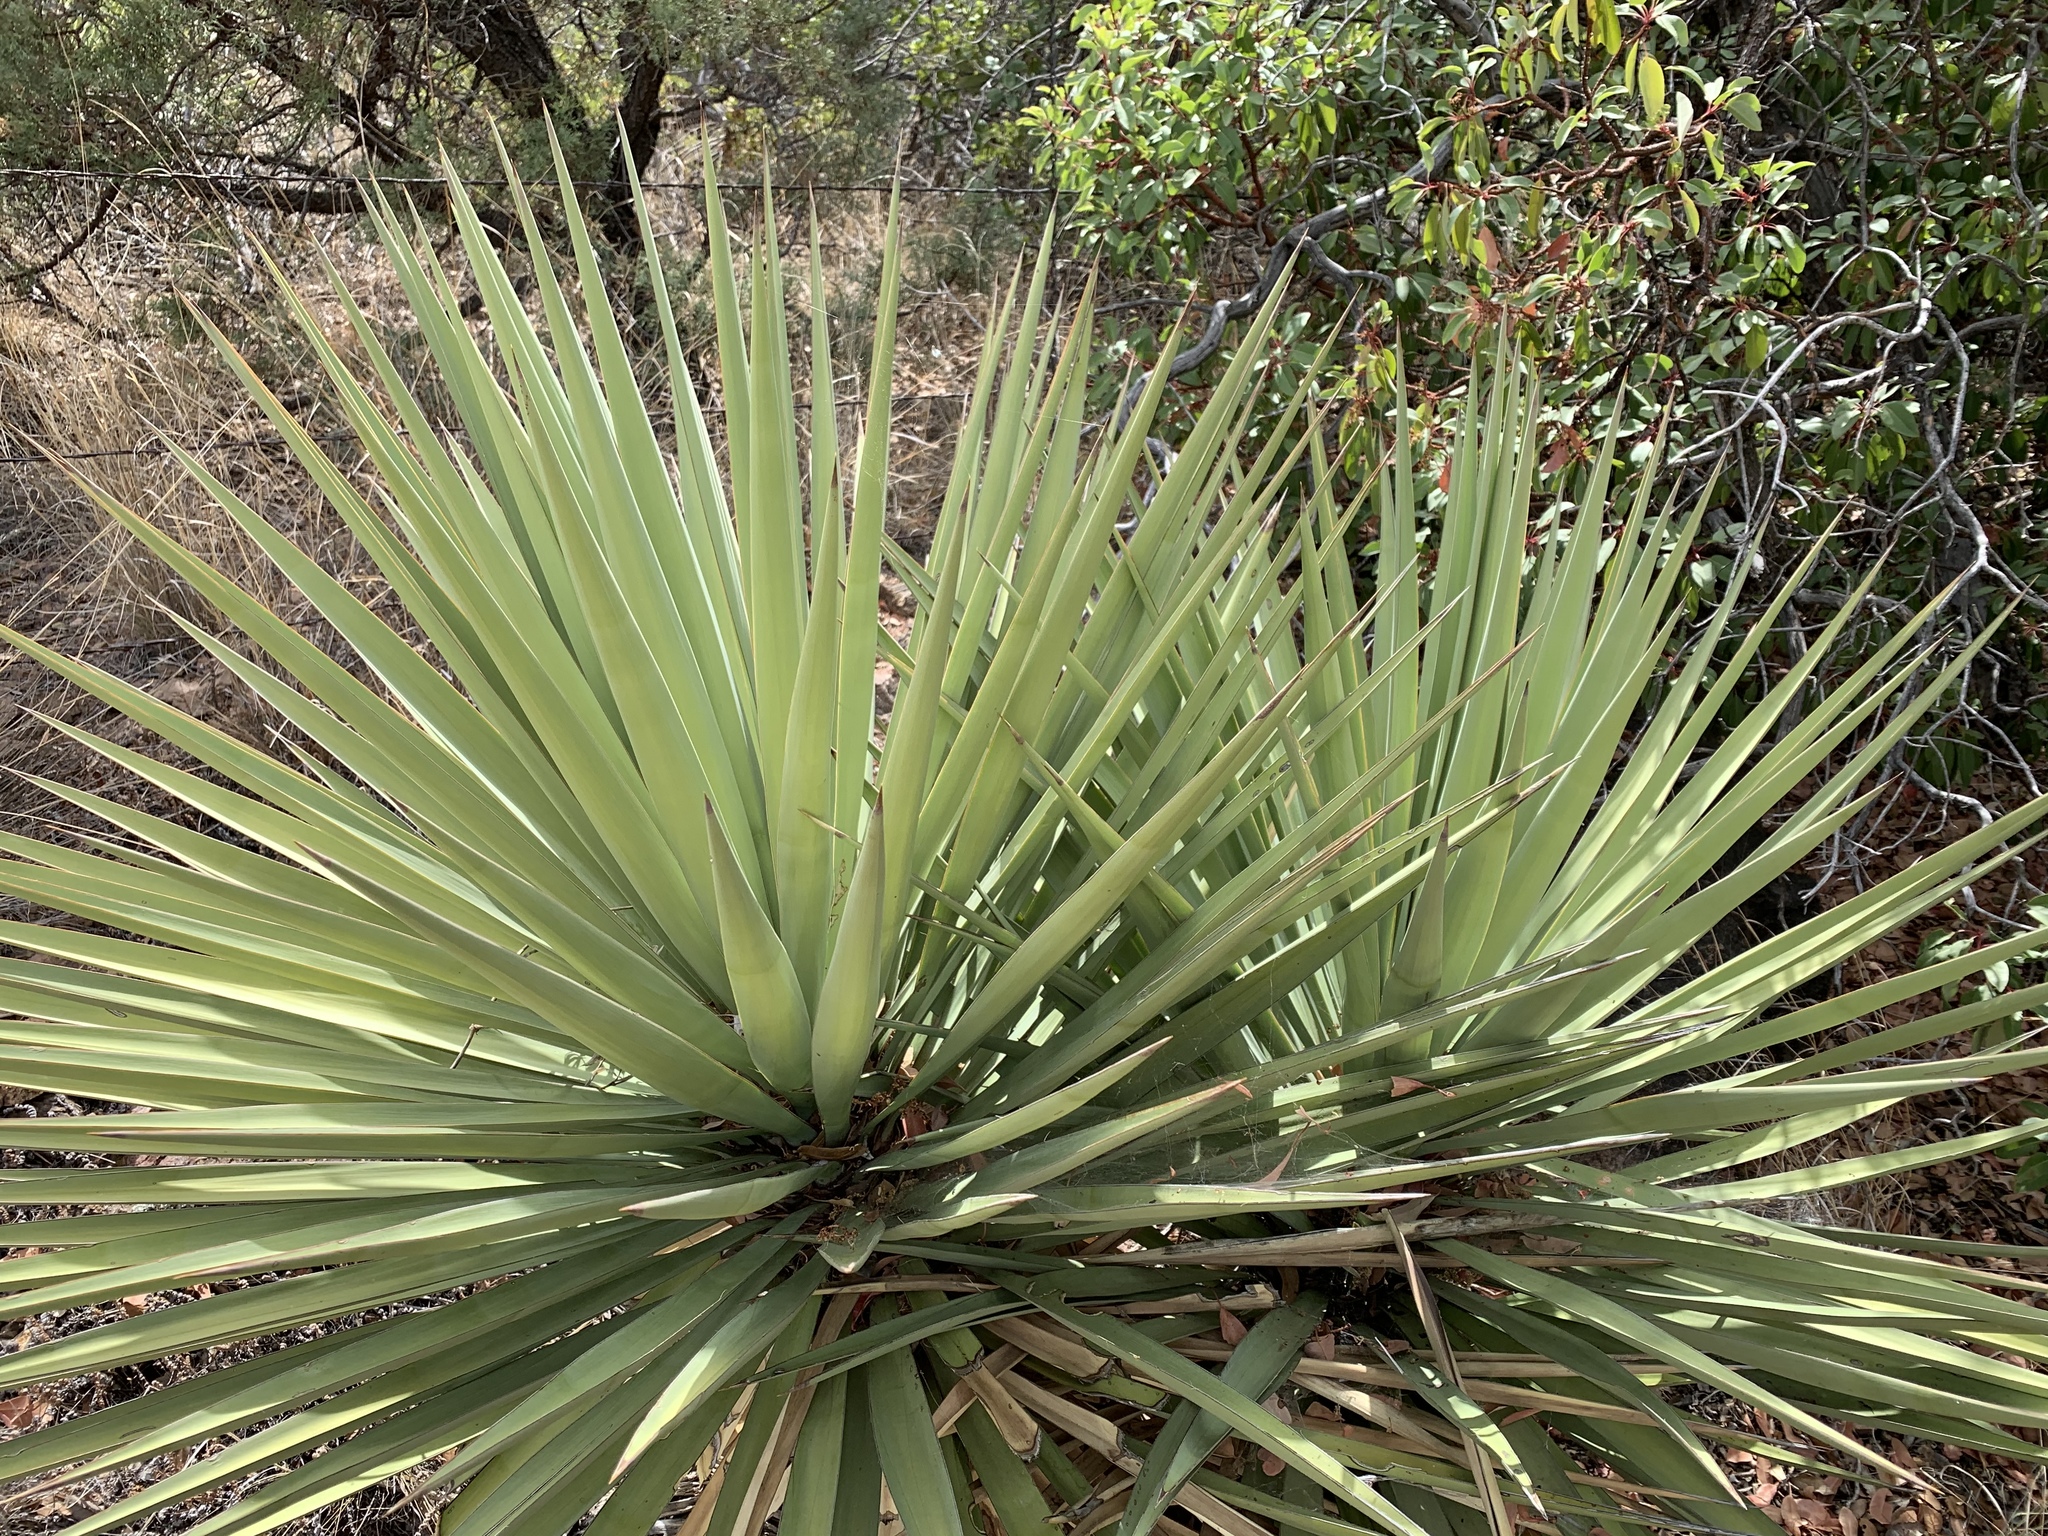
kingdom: Plantae
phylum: Tracheophyta
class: Liliopsida
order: Asparagales
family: Asparagaceae
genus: Yucca
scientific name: Yucca madrensis
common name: Hoary yucca
